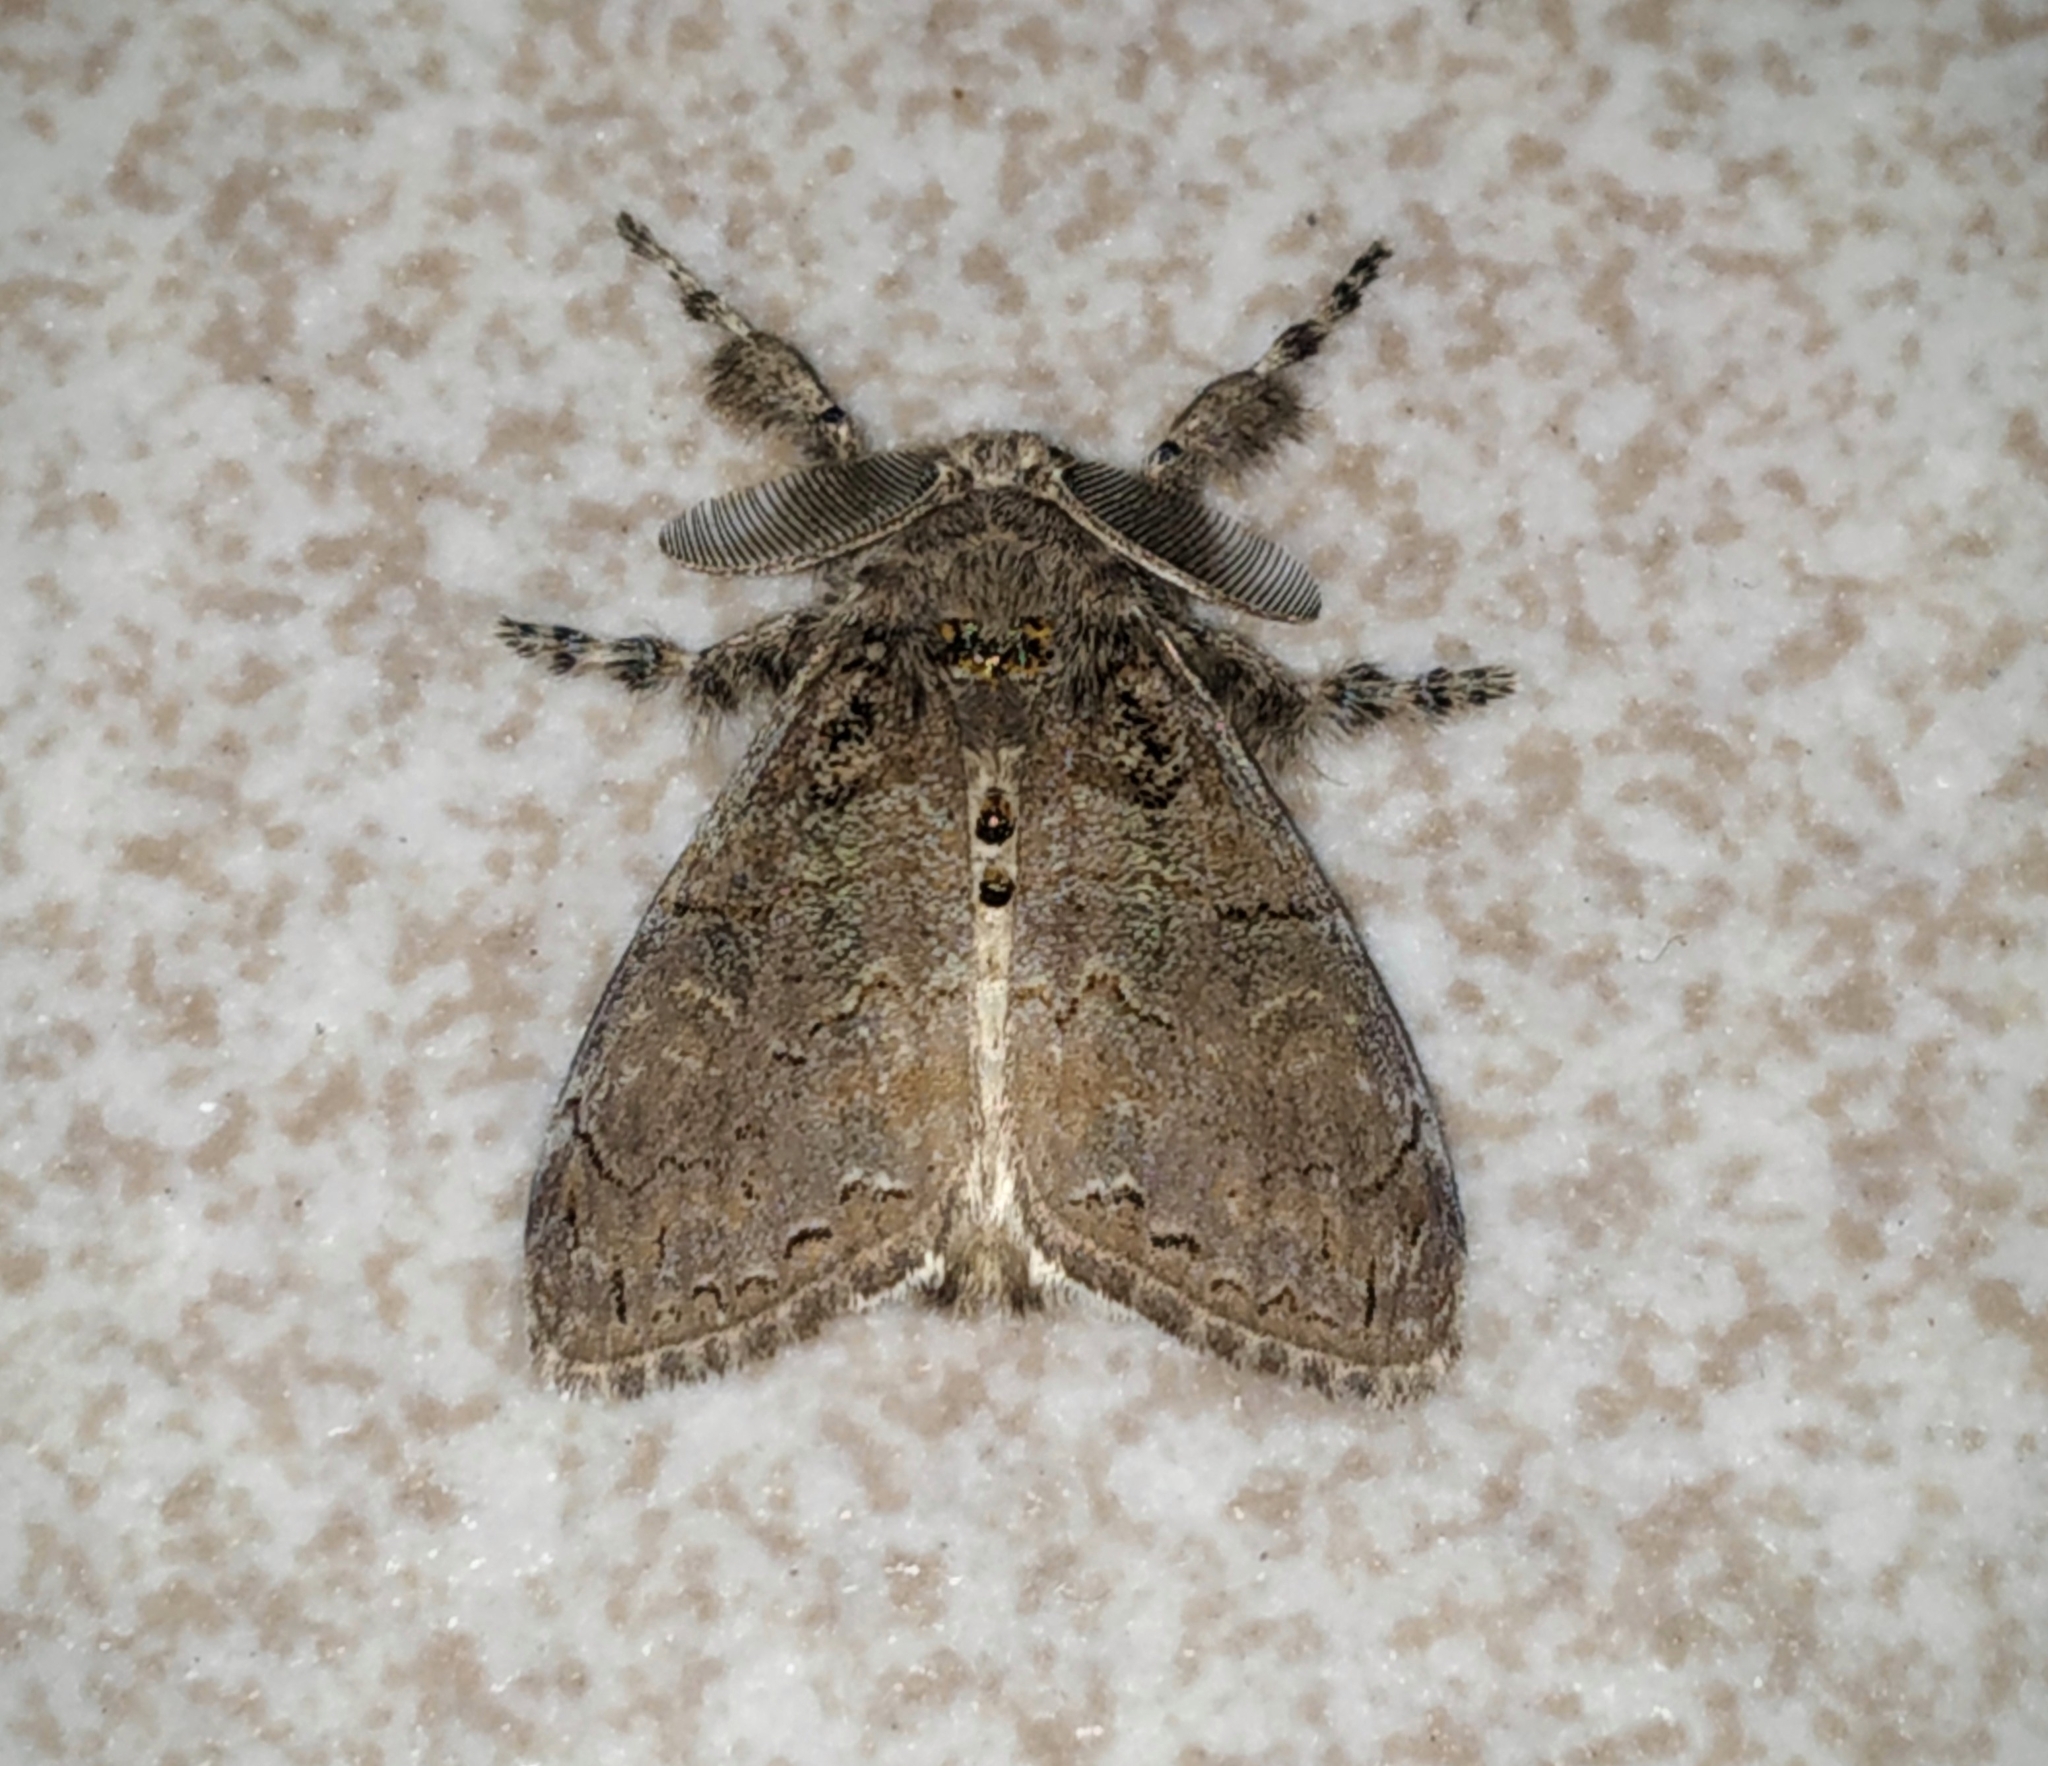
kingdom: Animalia
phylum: Arthropoda
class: Insecta
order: Lepidoptera
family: Erebidae
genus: Olene
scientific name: Olene mendosa
